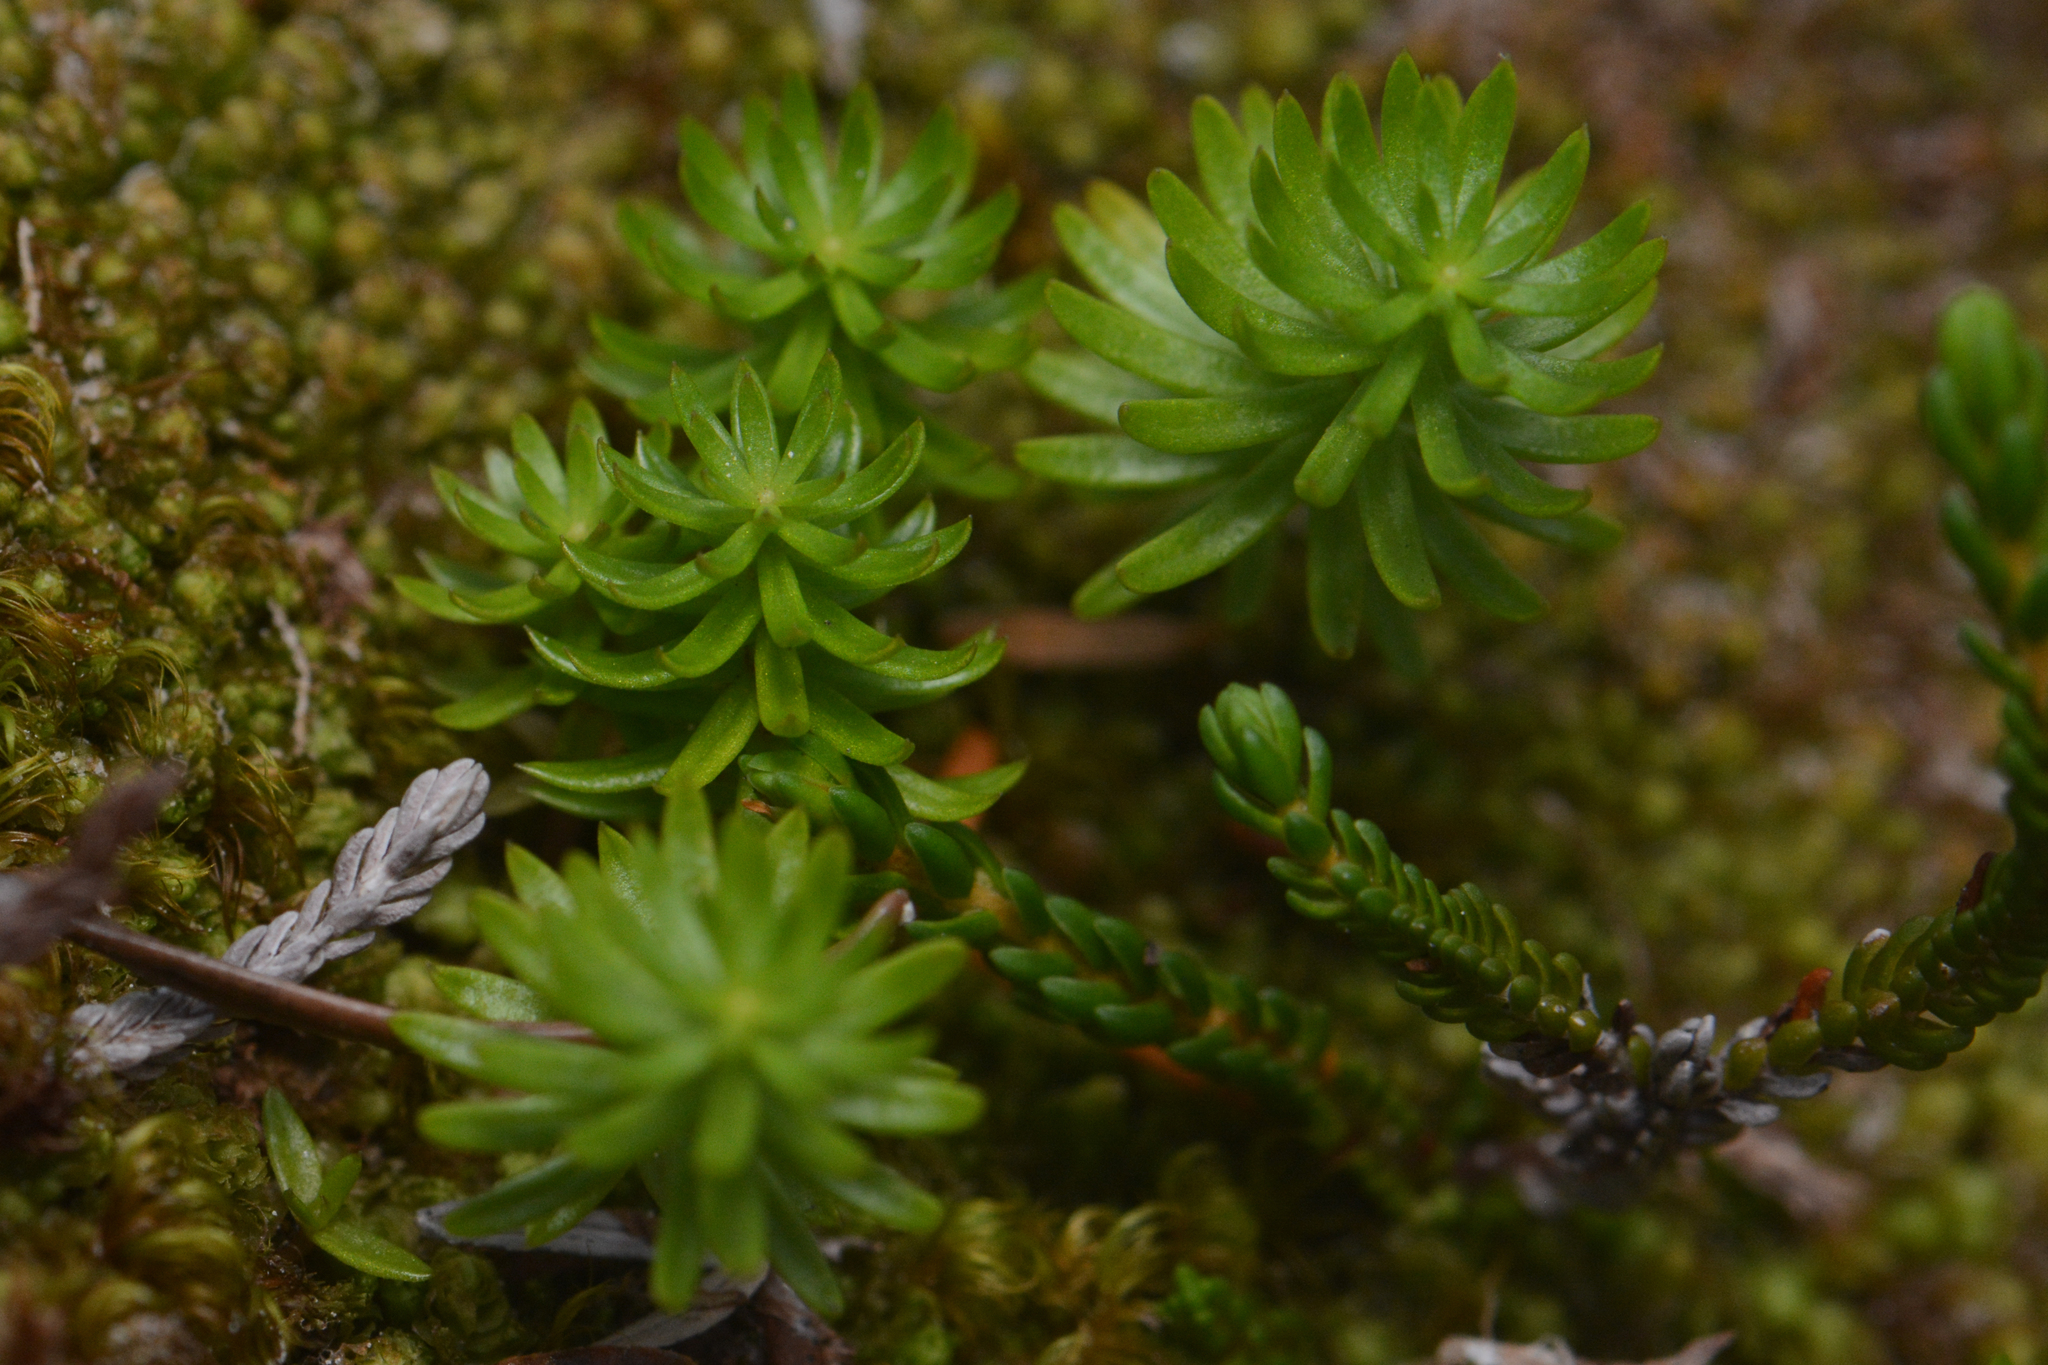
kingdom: Plantae
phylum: Tracheophyta
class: Magnoliopsida
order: Lamiales
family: Plantaginaceae
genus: Hippuris
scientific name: Hippuris montana
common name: Mountain mare's-tail
